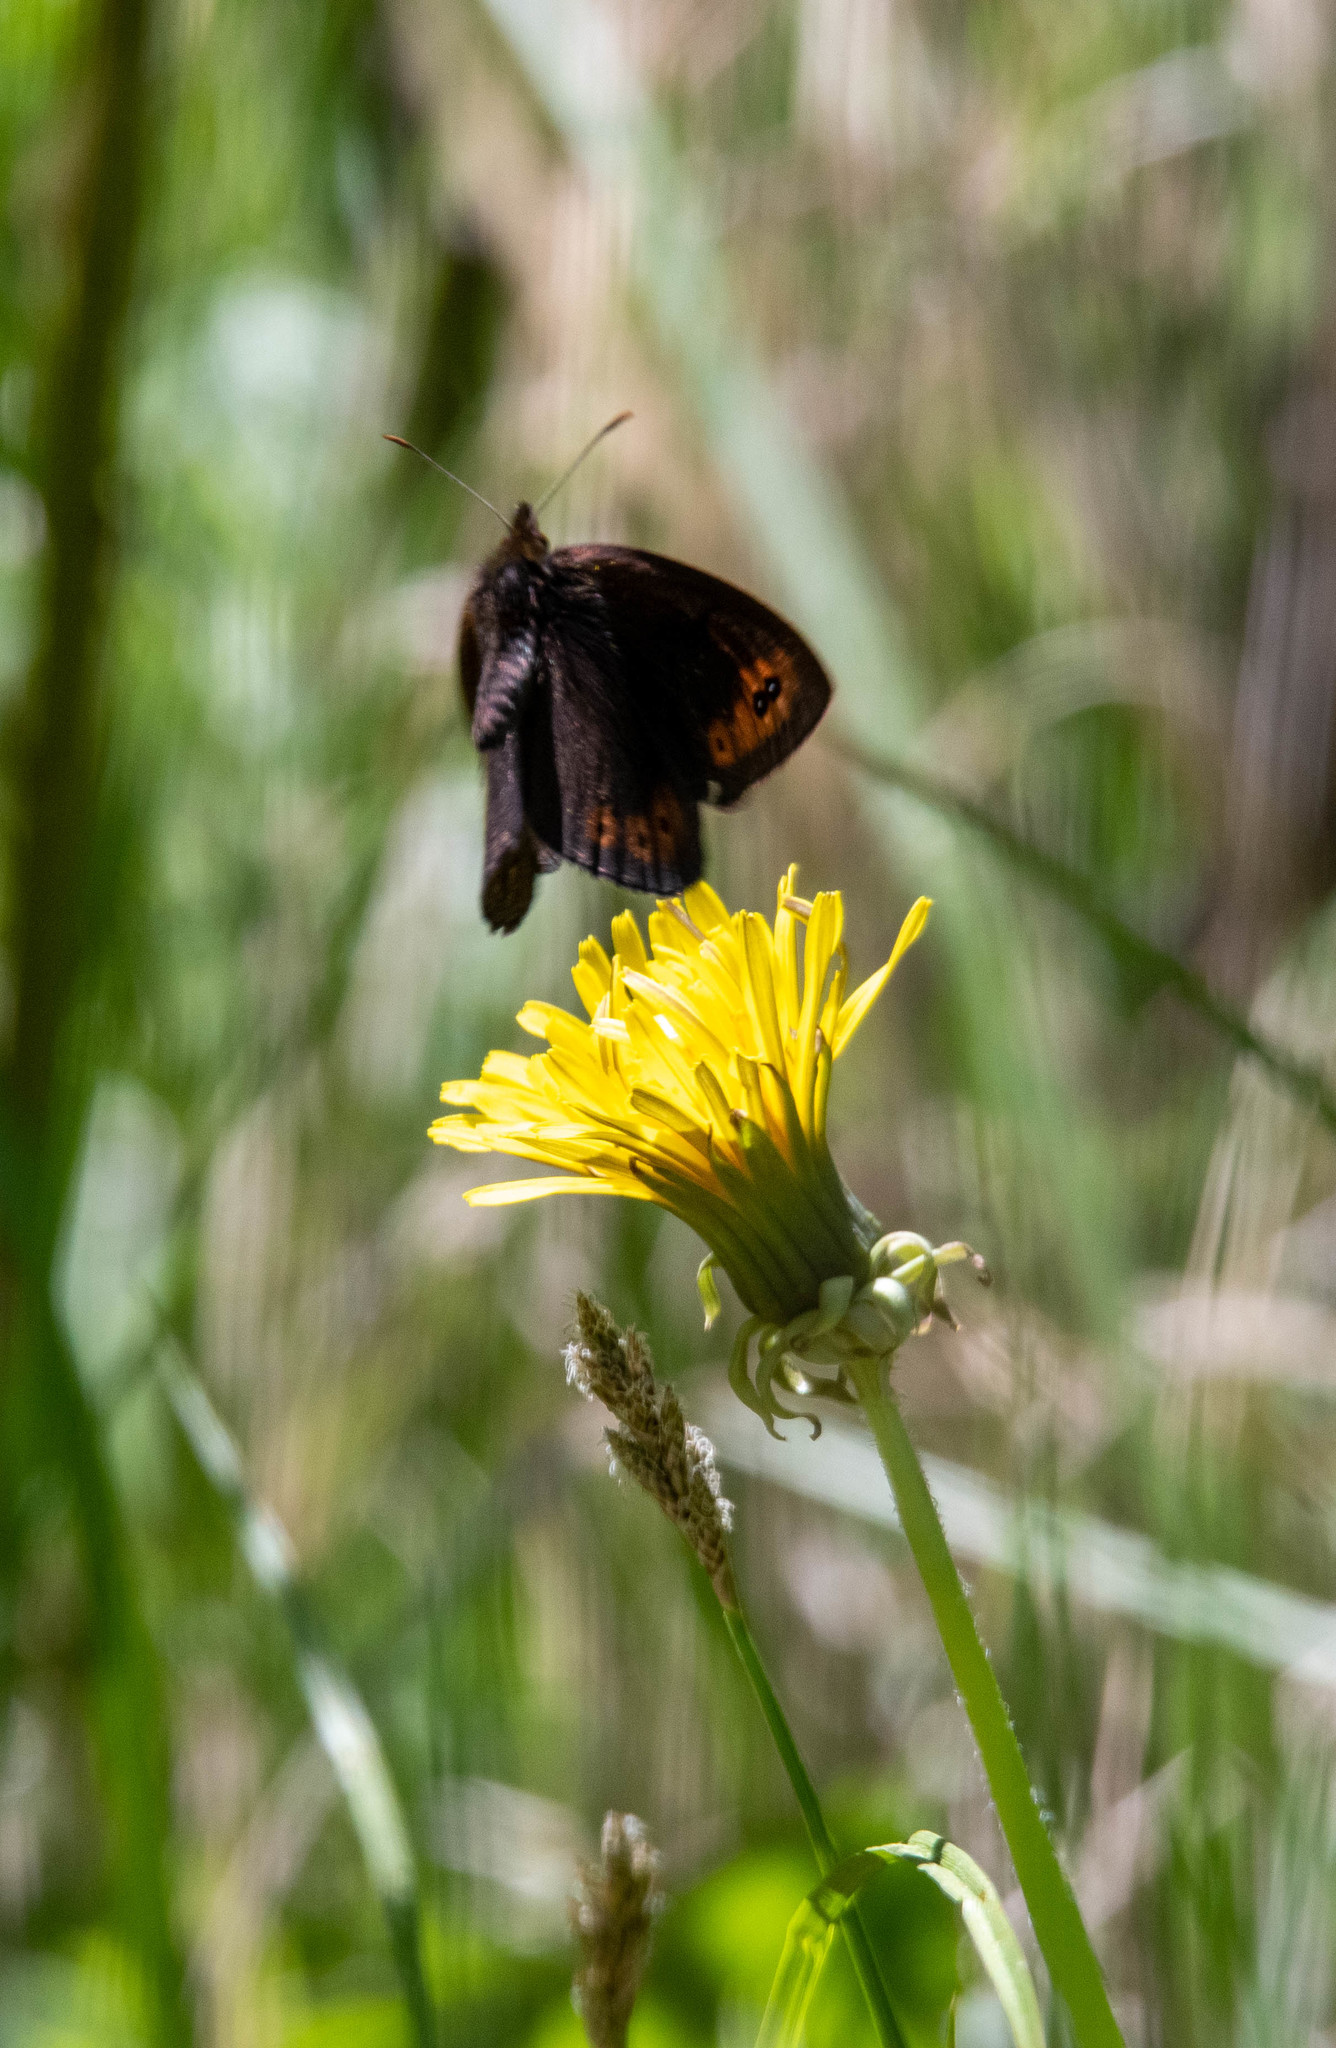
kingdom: Animalia
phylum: Arthropoda
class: Insecta
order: Lepidoptera
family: Nymphalidae
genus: Erebia
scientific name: Erebia epipsodea
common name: Common alpine
